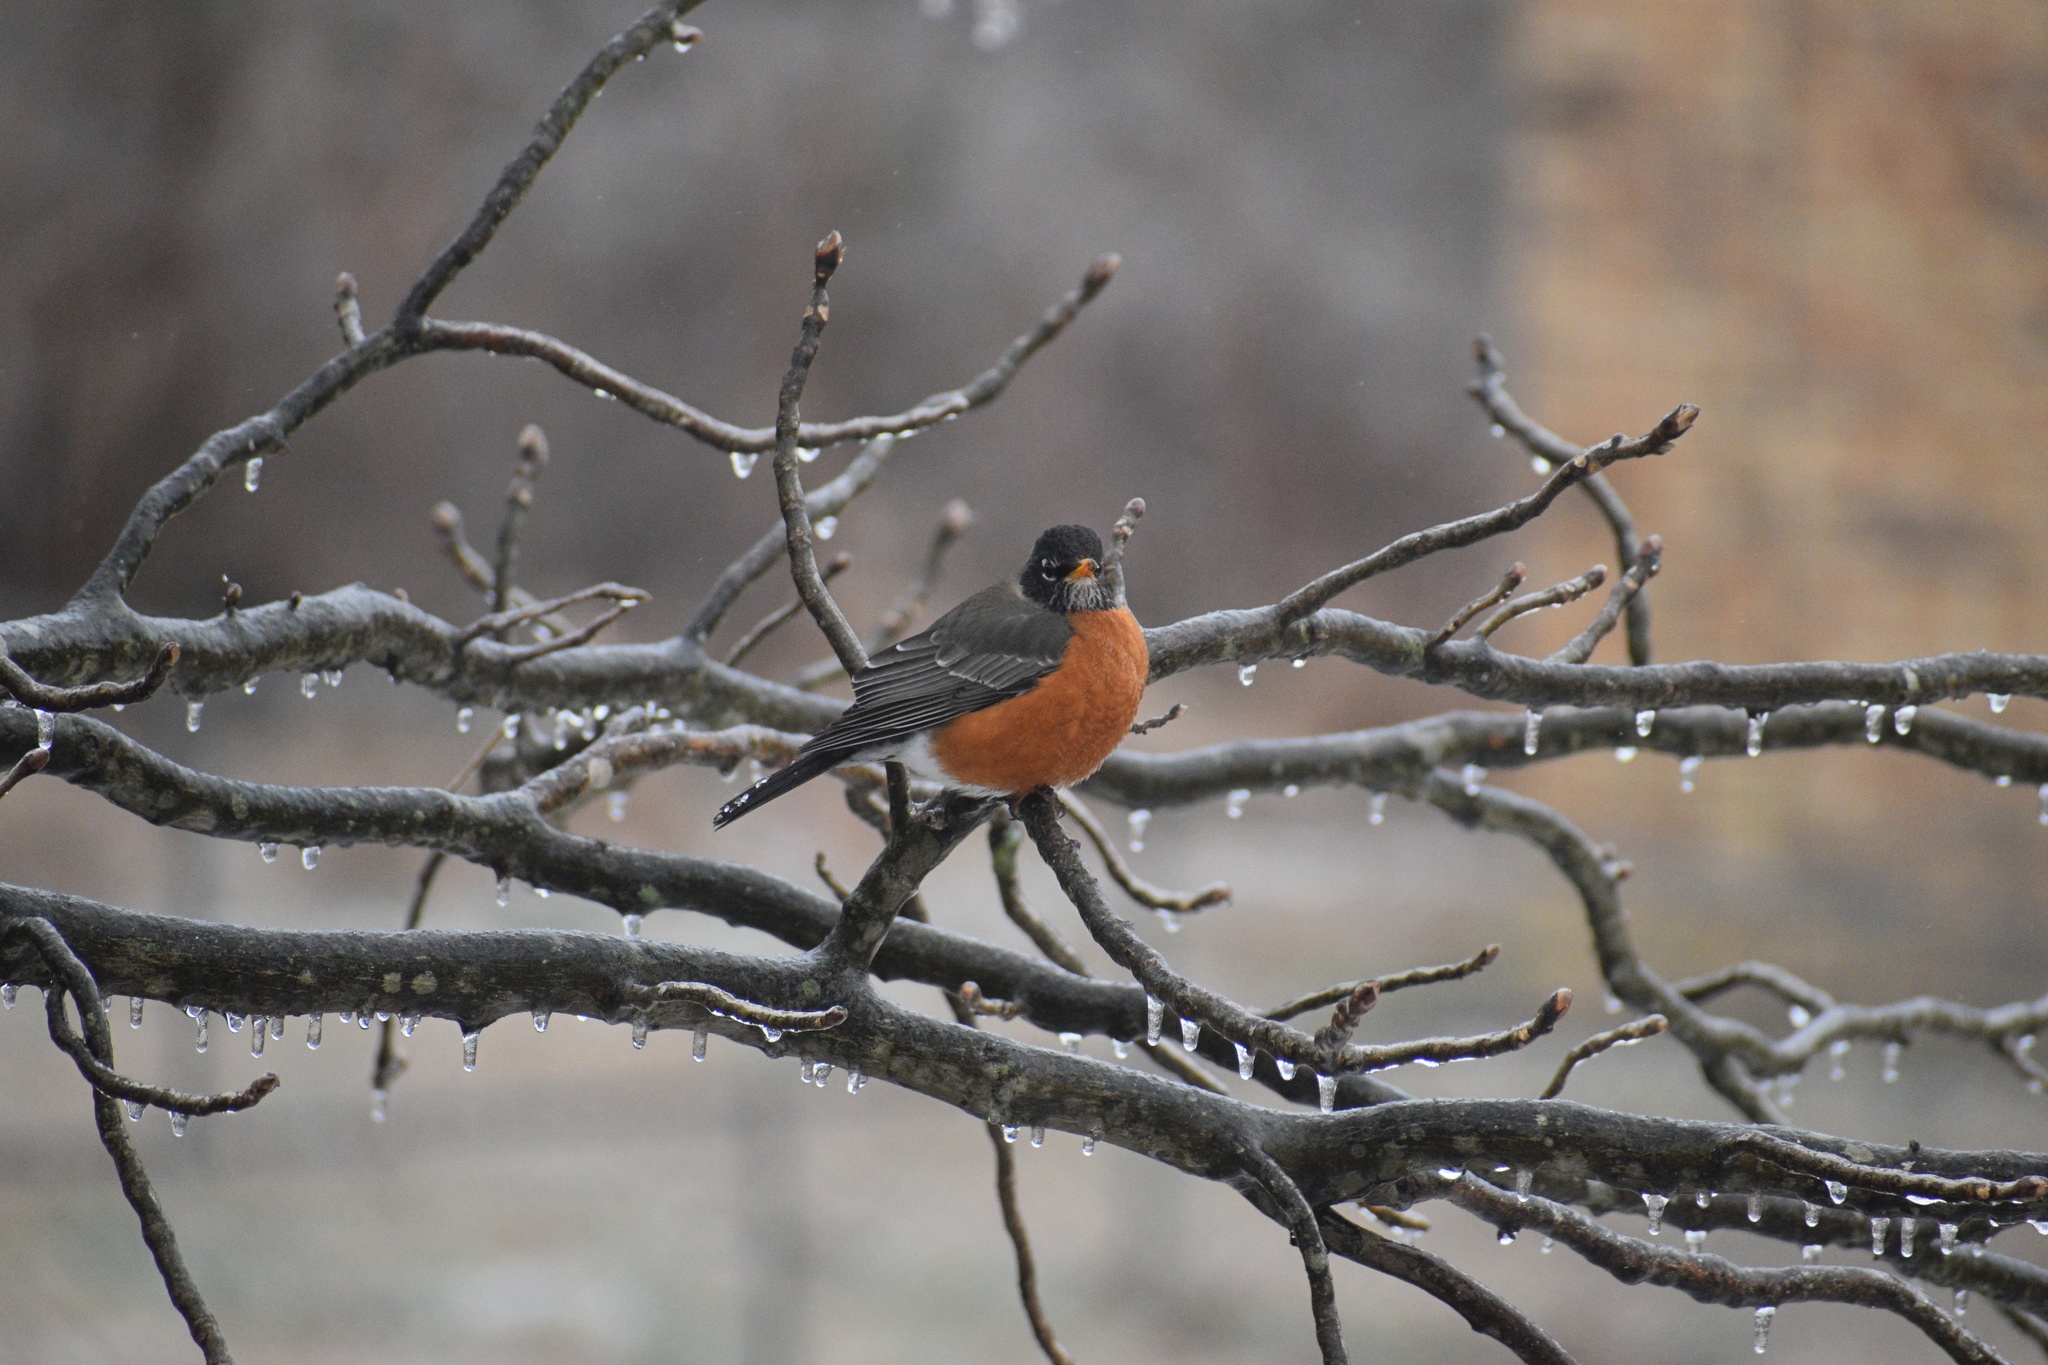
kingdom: Animalia
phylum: Chordata
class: Aves
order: Passeriformes
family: Turdidae
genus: Turdus
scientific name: Turdus migratorius
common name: American robin
